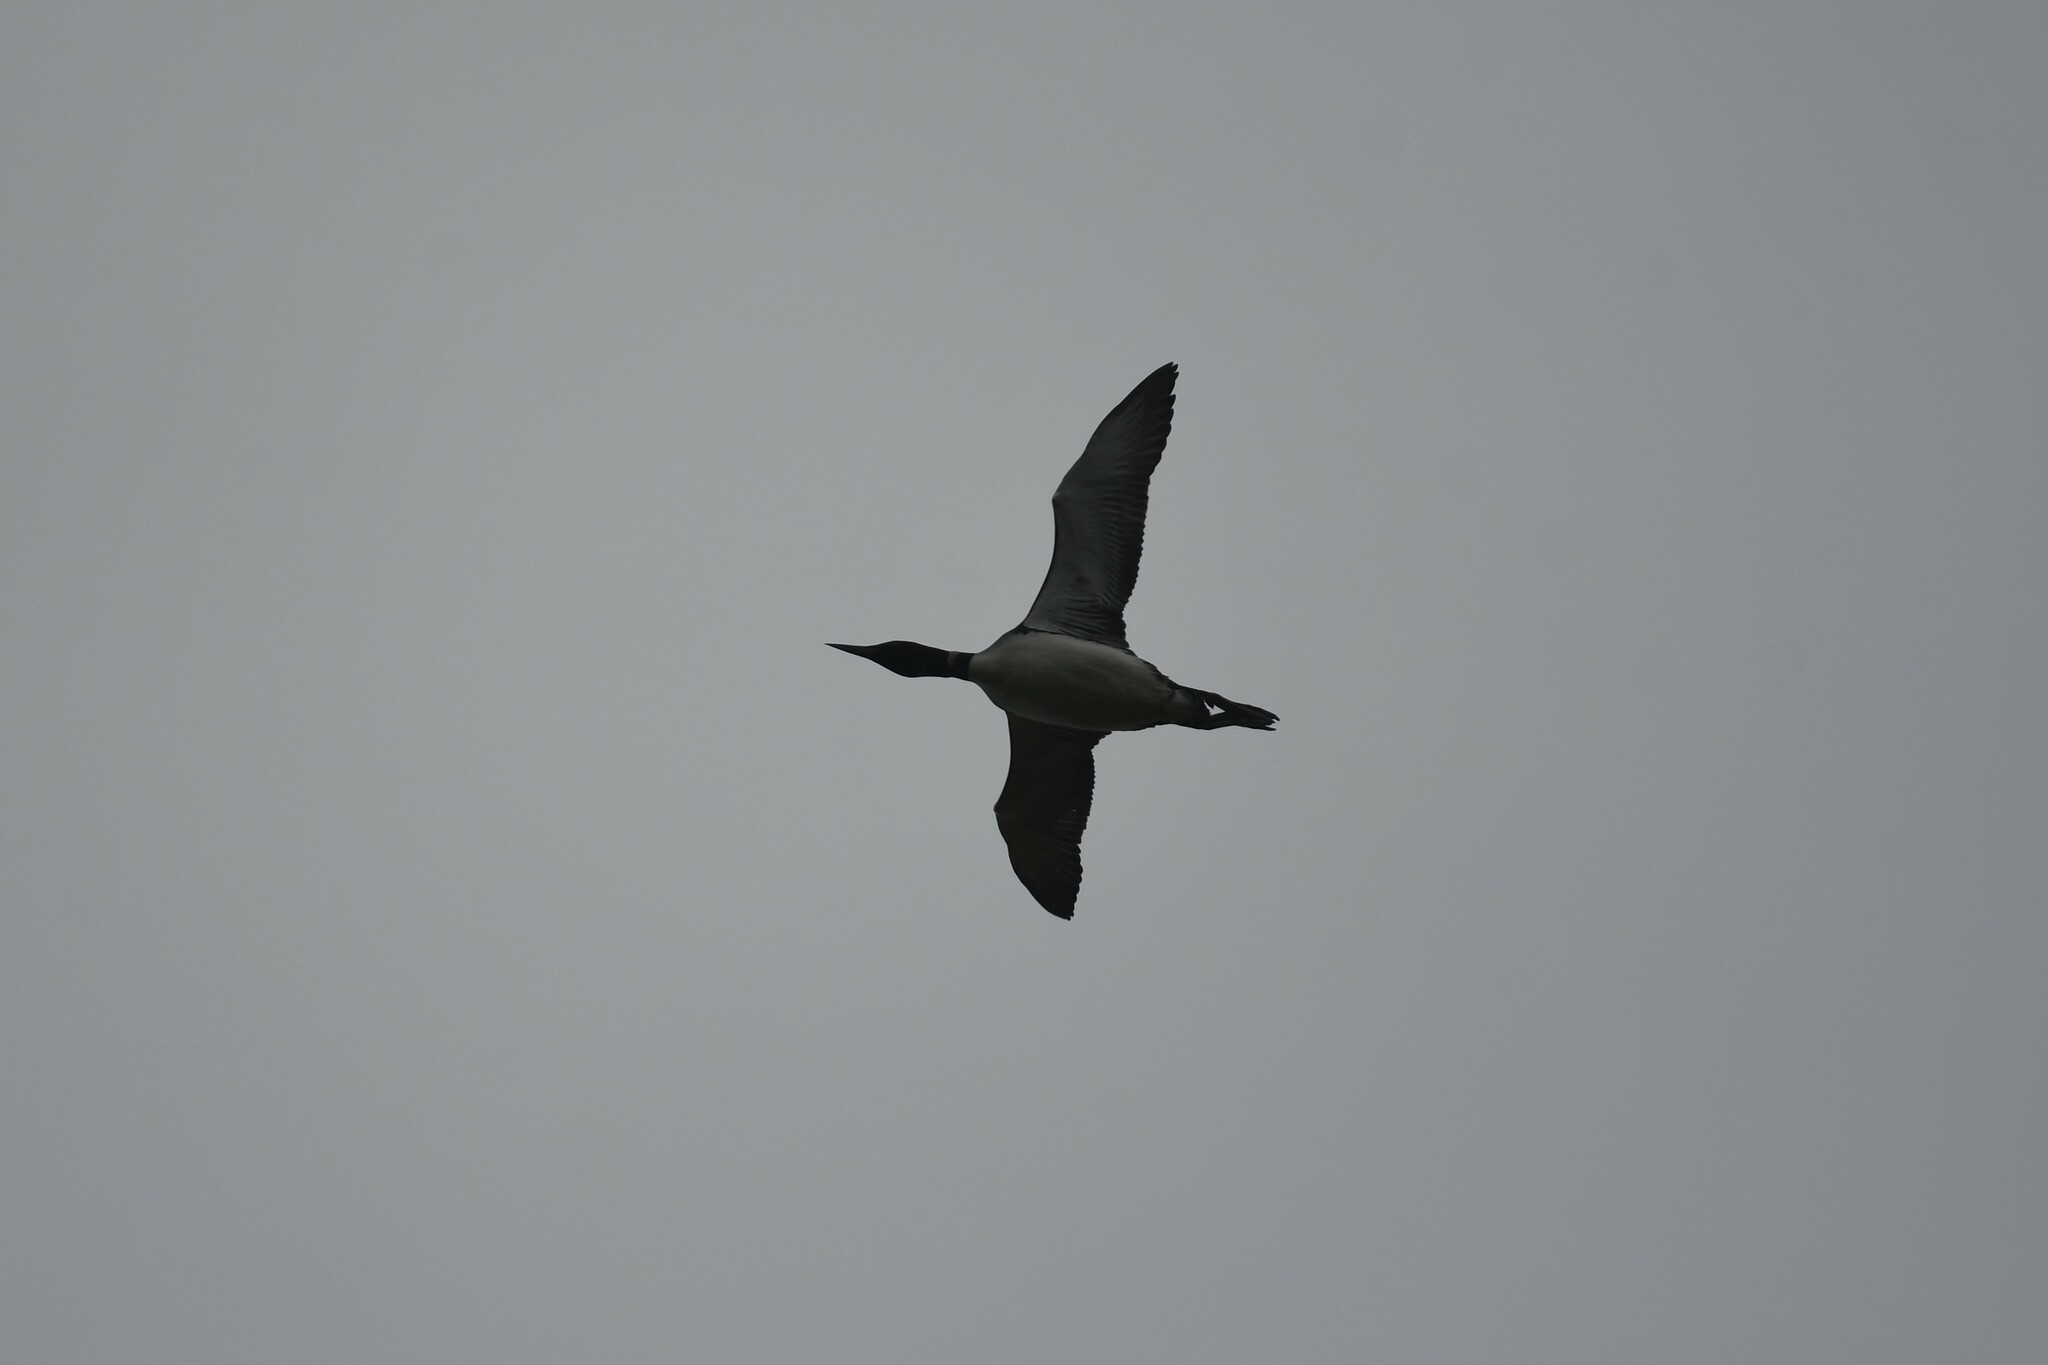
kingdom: Animalia
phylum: Chordata
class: Aves
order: Gaviiformes
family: Gaviidae
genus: Gavia
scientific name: Gavia immer
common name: Common loon
